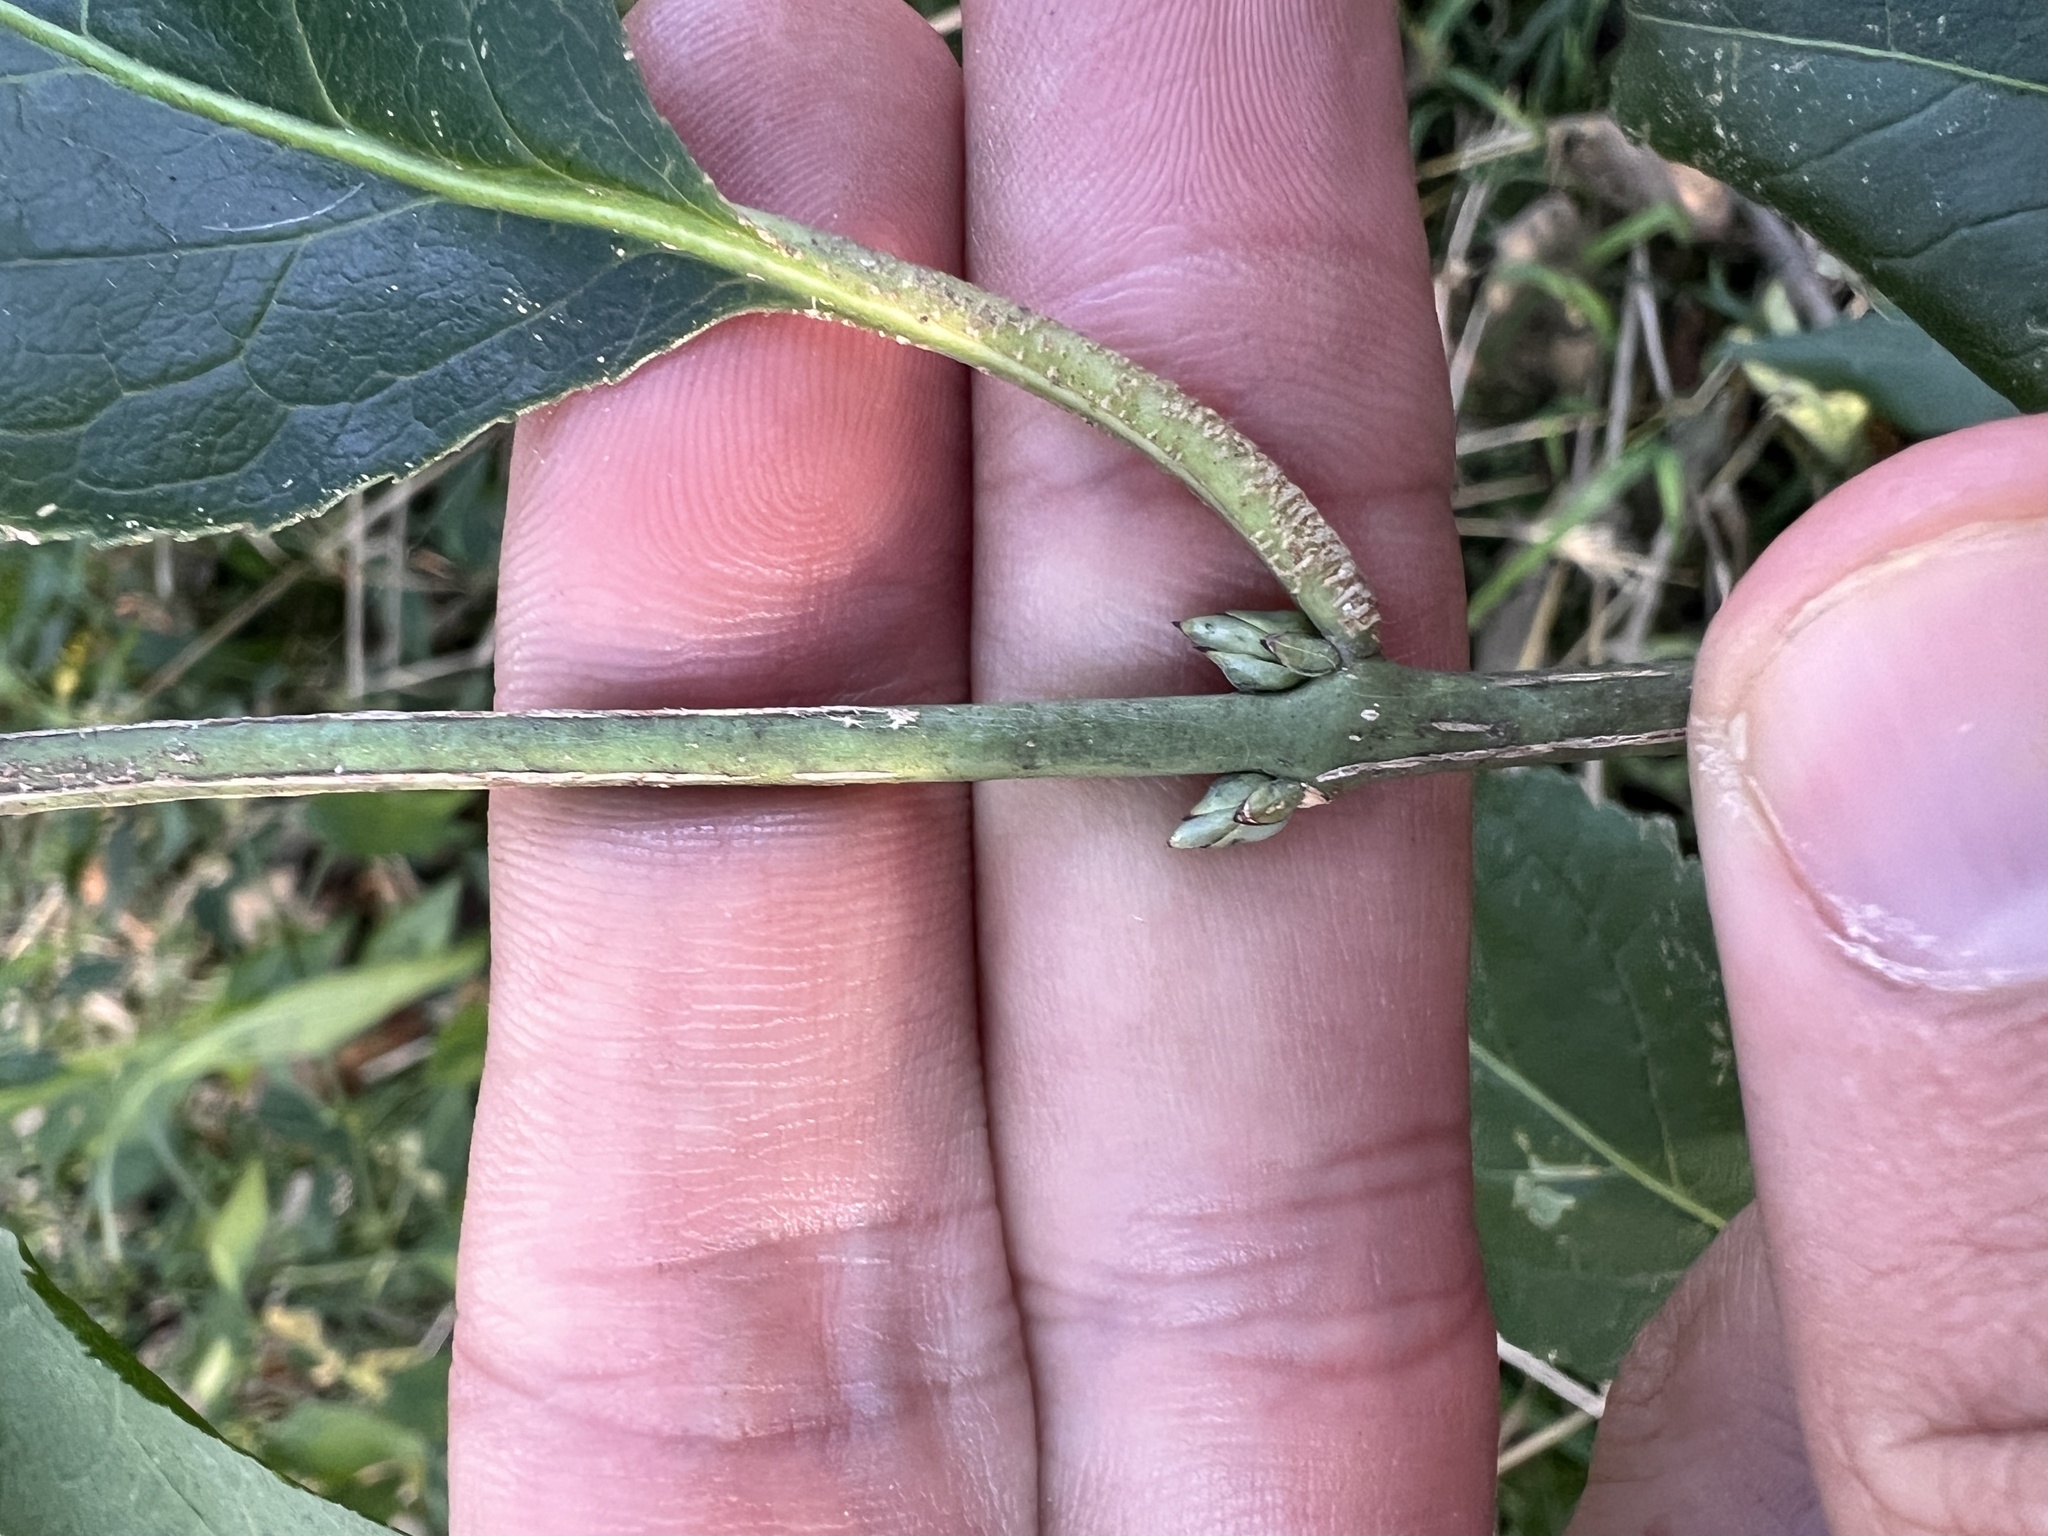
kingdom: Plantae
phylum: Tracheophyta
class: Magnoliopsida
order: Celastrales
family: Celastraceae
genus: Euonymus
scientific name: Euonymus atropurpureus
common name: Eastern wahoo
